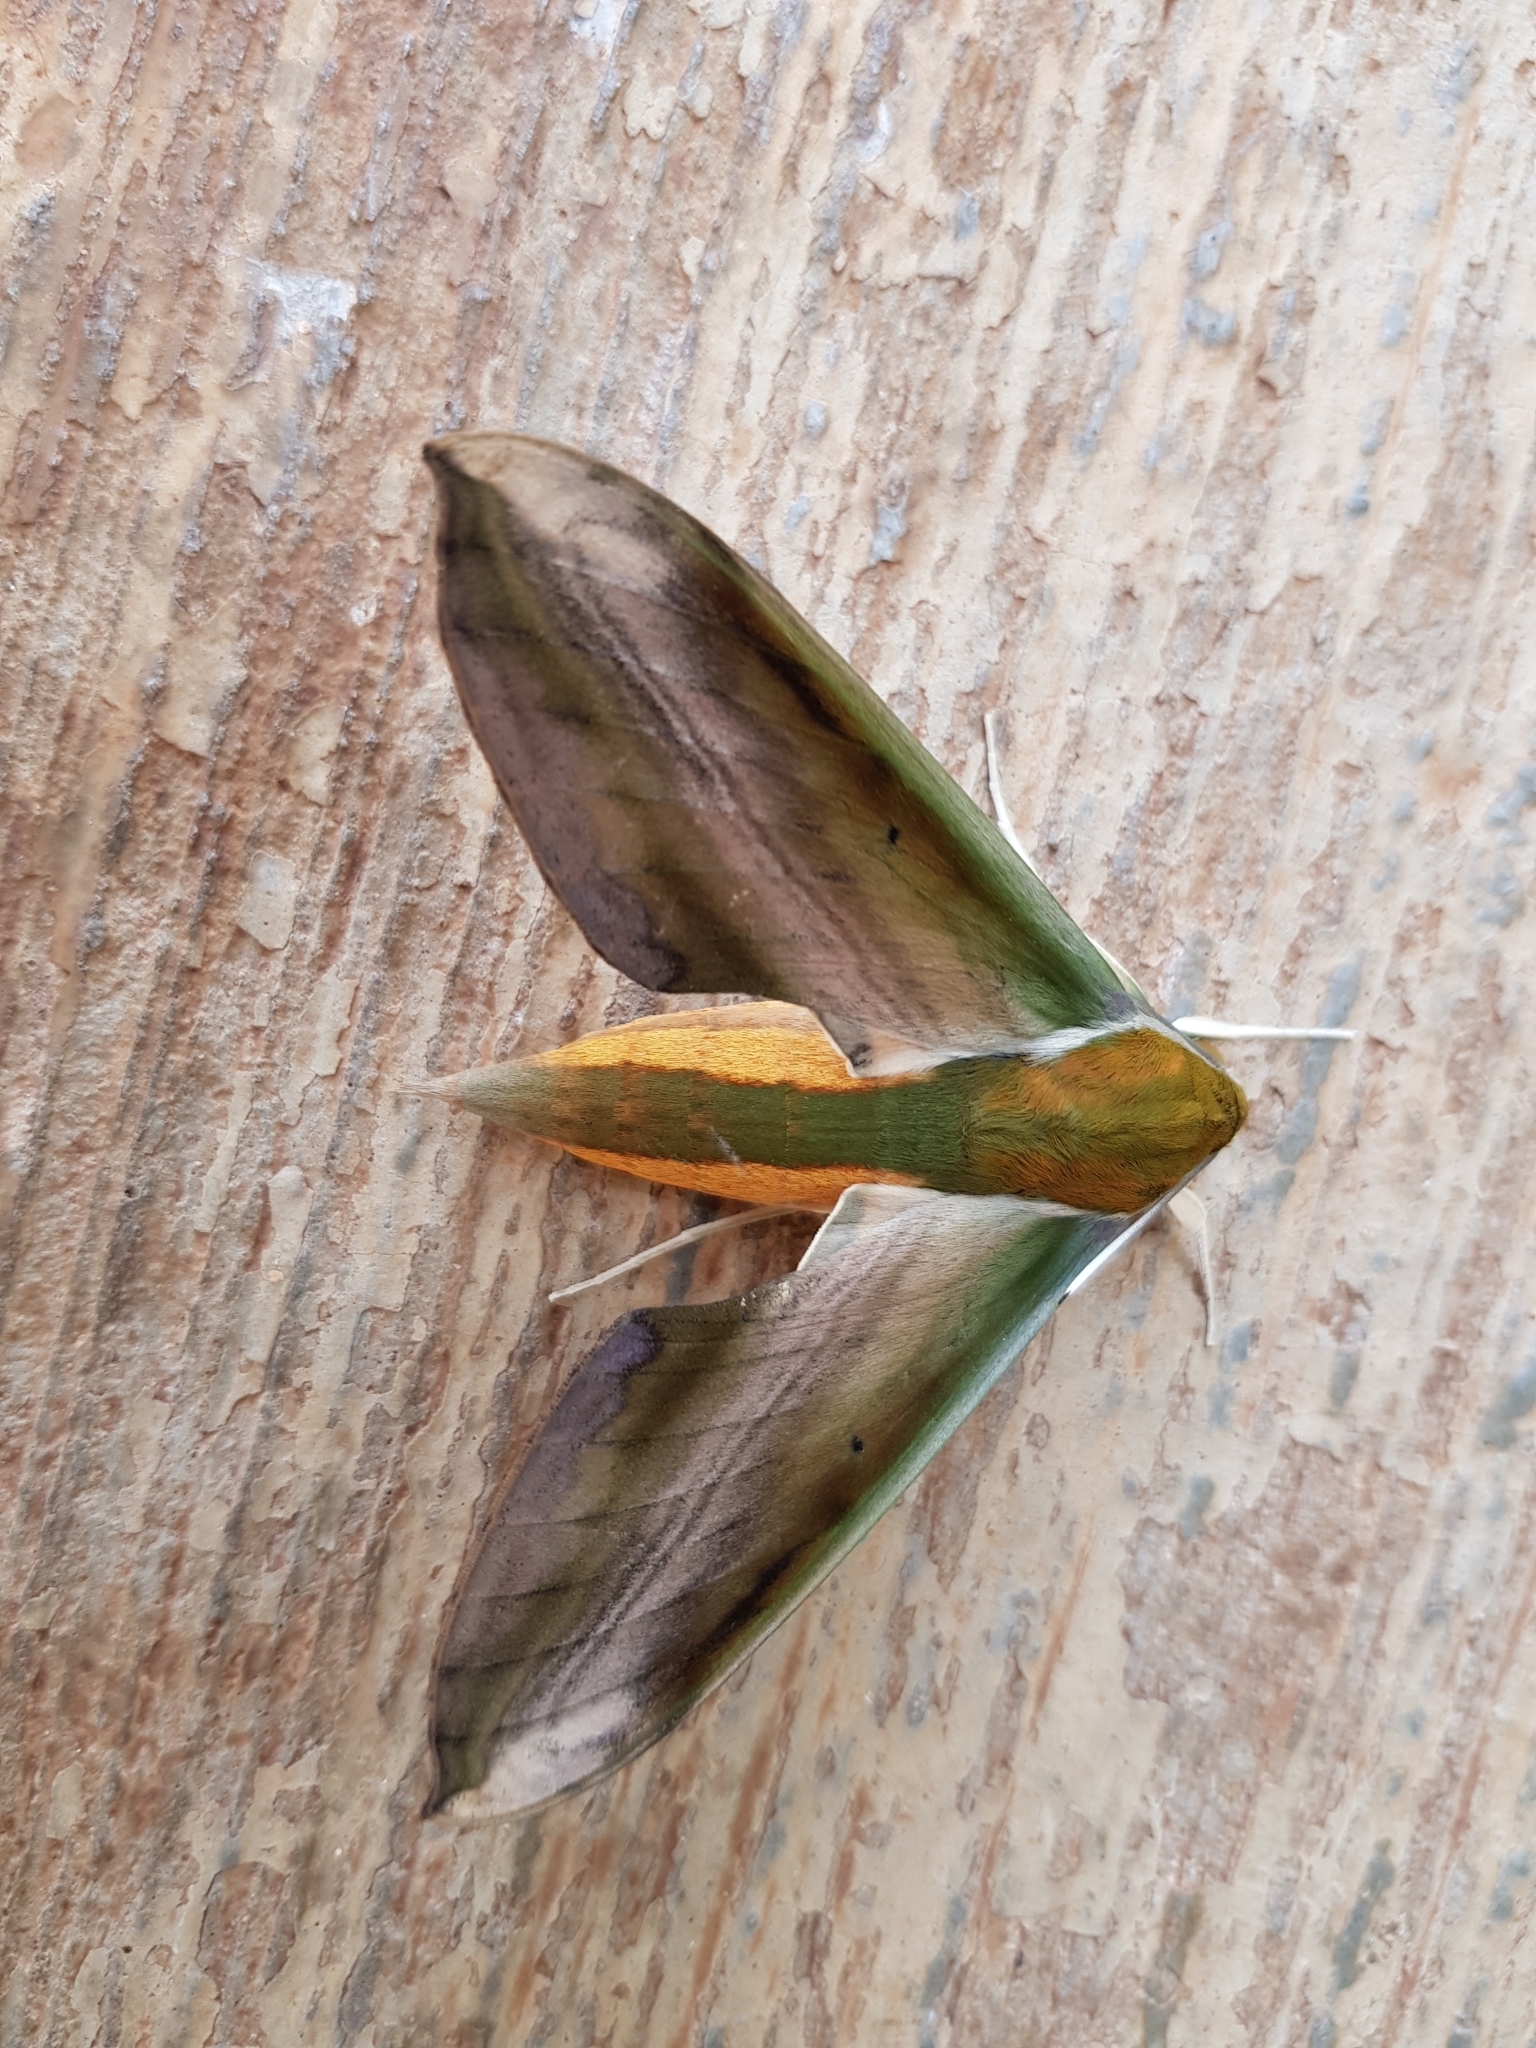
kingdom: Animalia
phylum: Arthropoda
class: Insecta
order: Lepidoptera
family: Sphingidae
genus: Theretra
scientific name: Theretra nessus
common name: Yam hawk moth
